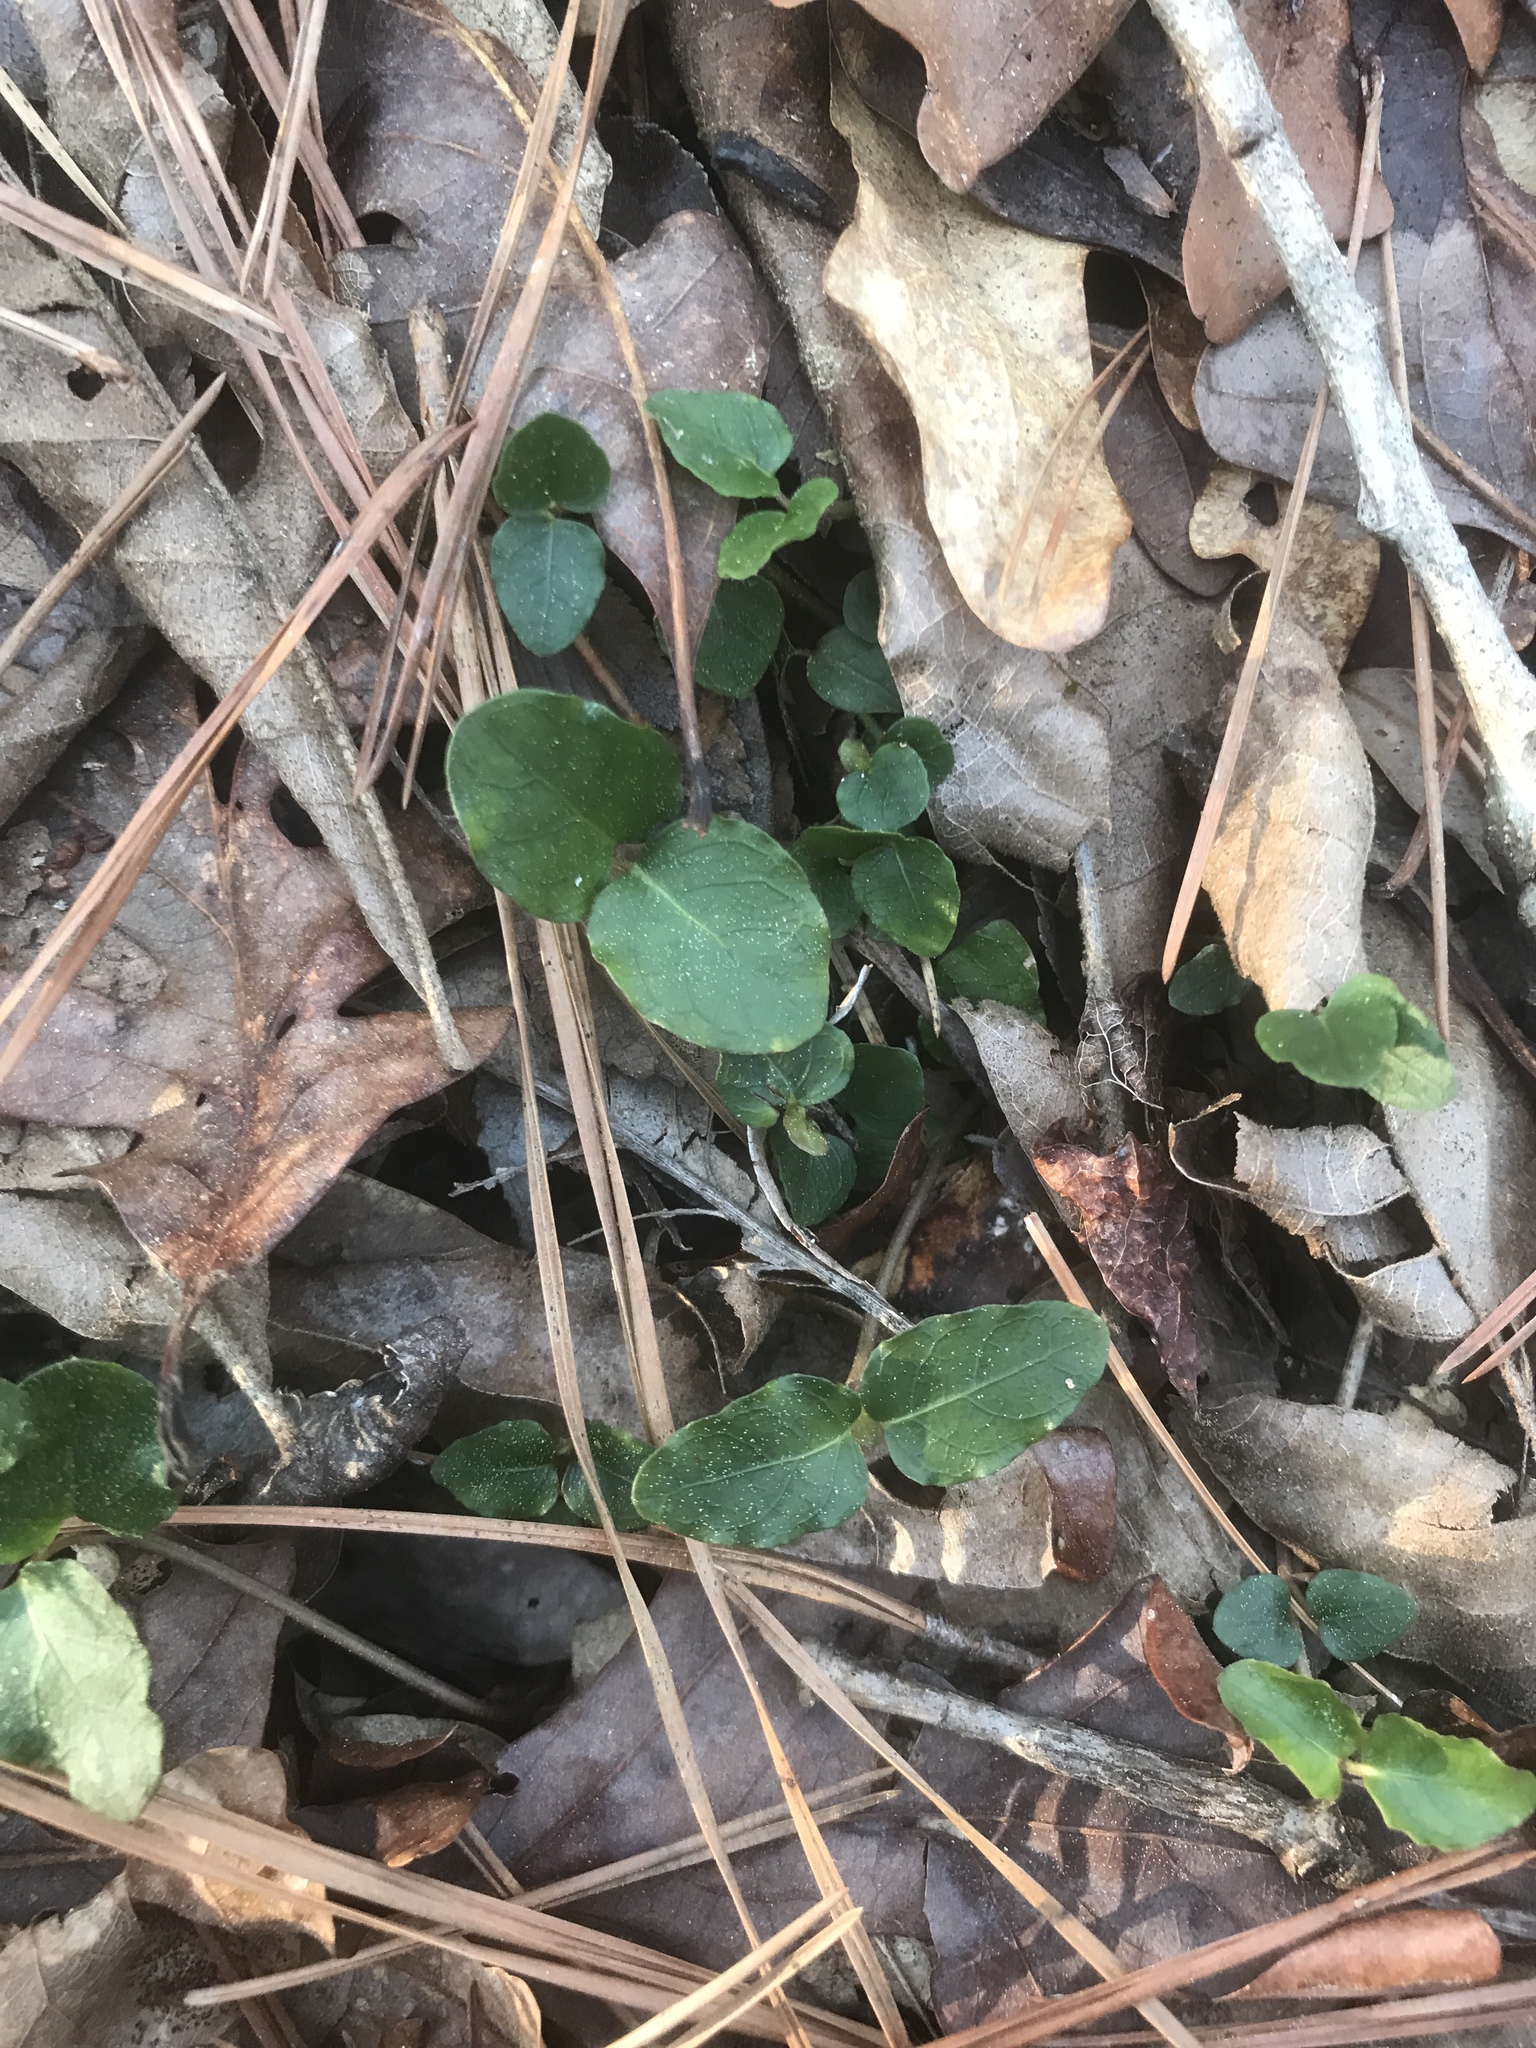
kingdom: Plantae
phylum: Tracheophyta
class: Magnoliopsida
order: Gentianales
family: Rubiaceae
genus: Mitchella
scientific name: Mitchella repens
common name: Partridge-berry
